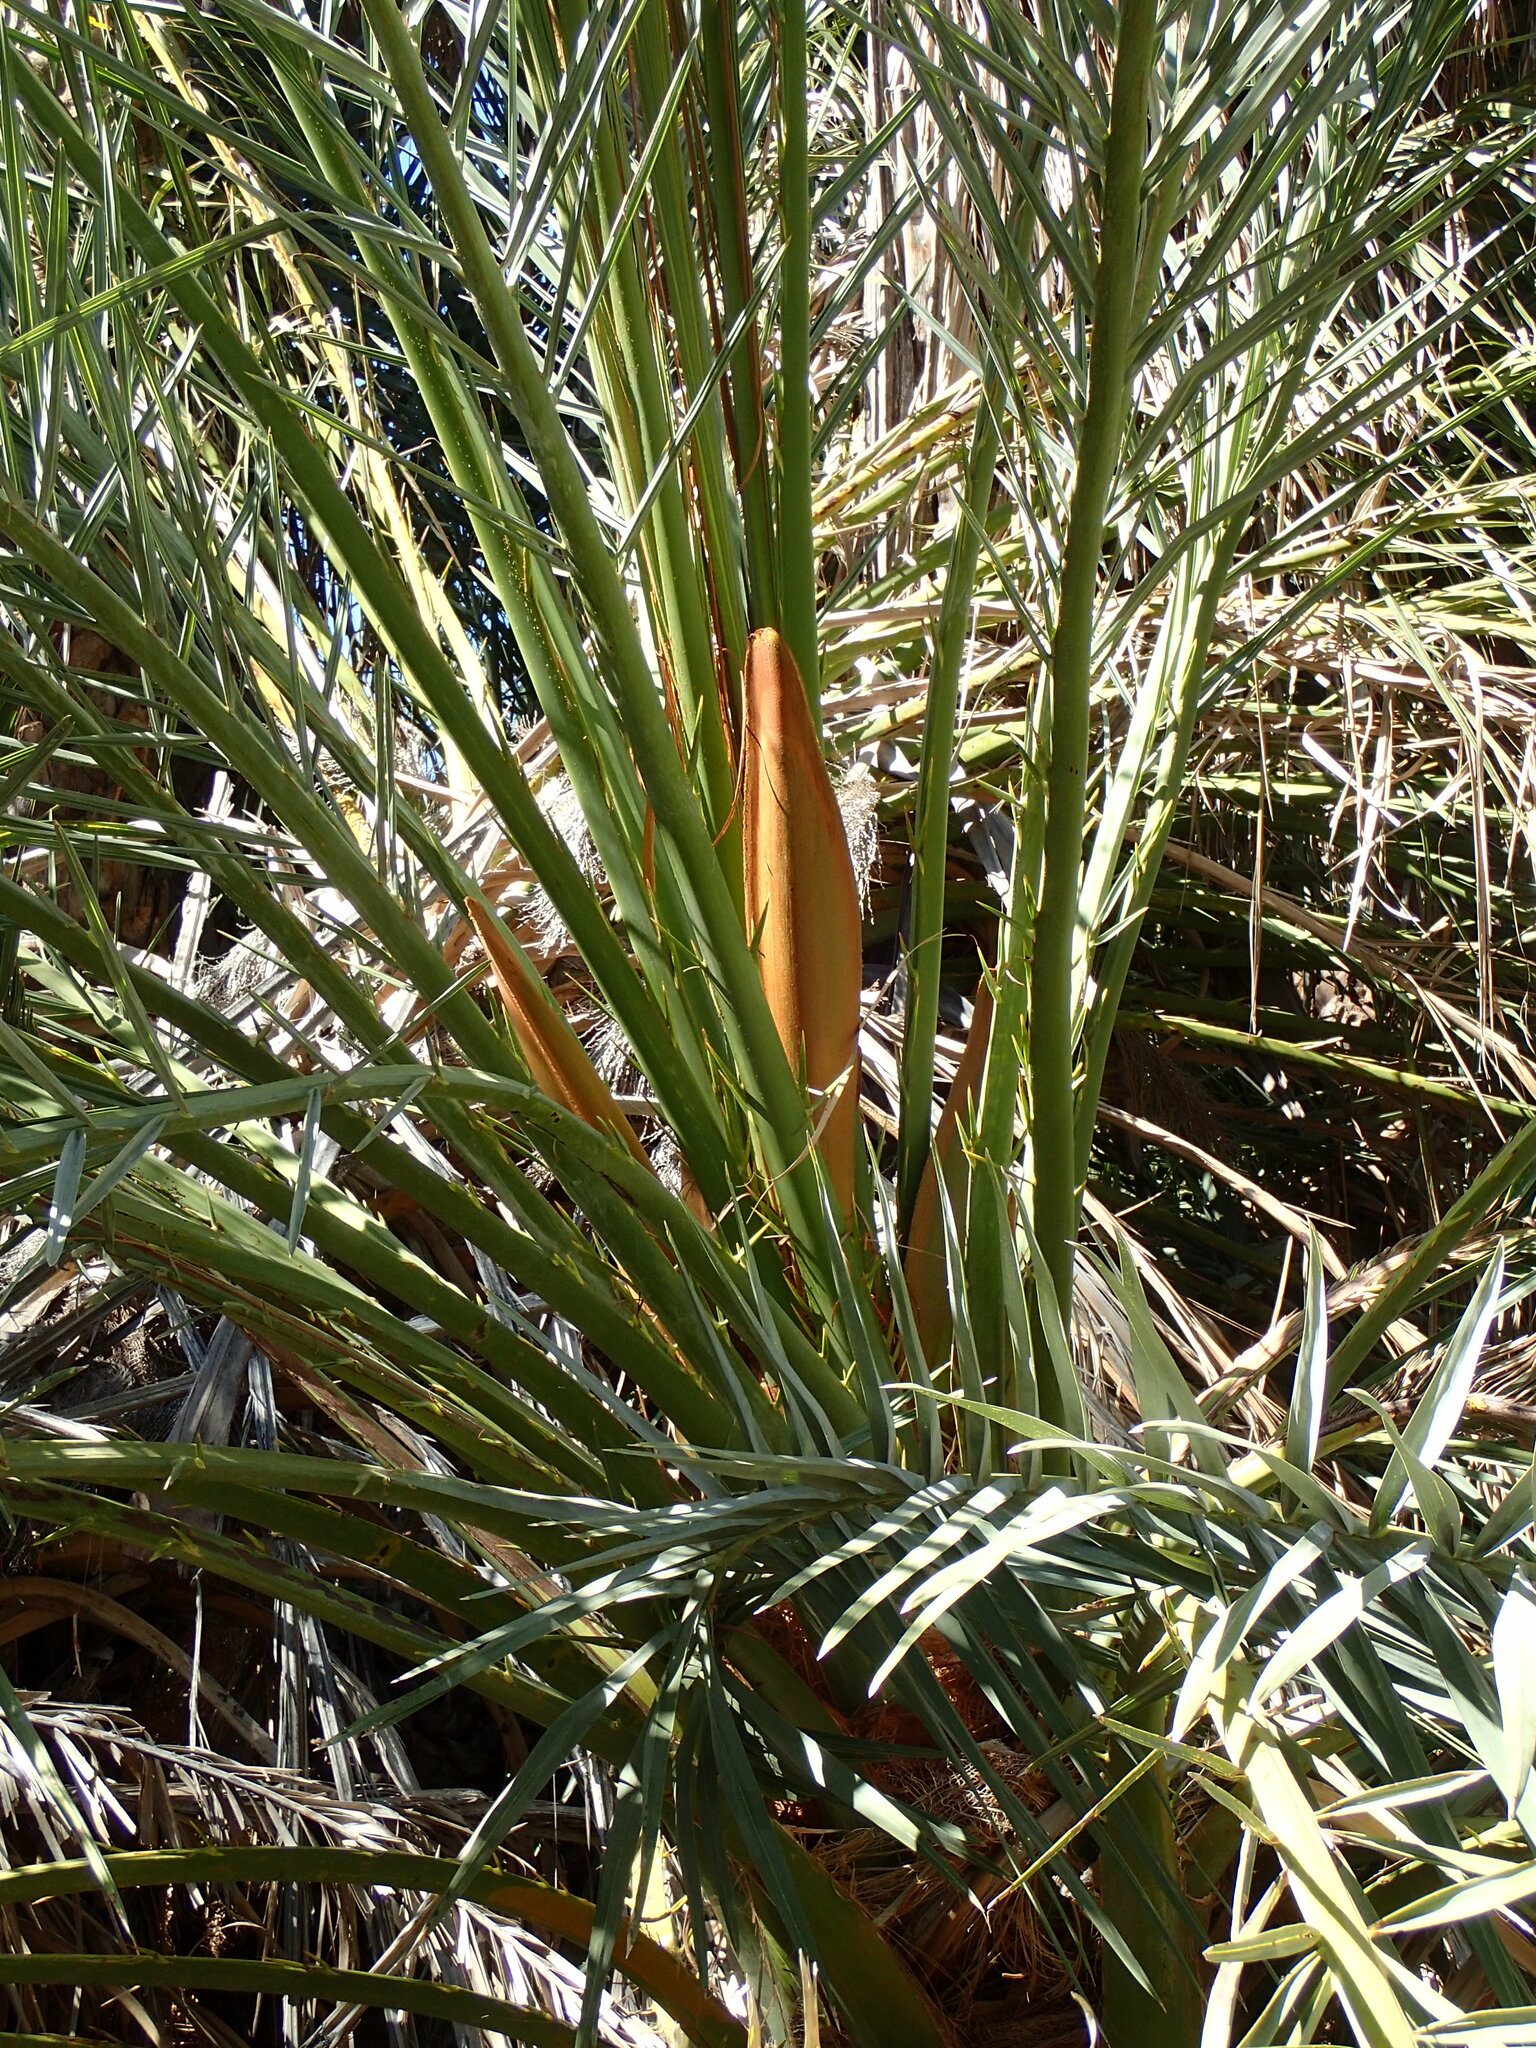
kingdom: Plantae
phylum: Tracheophyta
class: Liliopsida
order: Arecales
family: Arecaceae
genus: Phoenix
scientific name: Phoenix dactylifera
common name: Date palm
